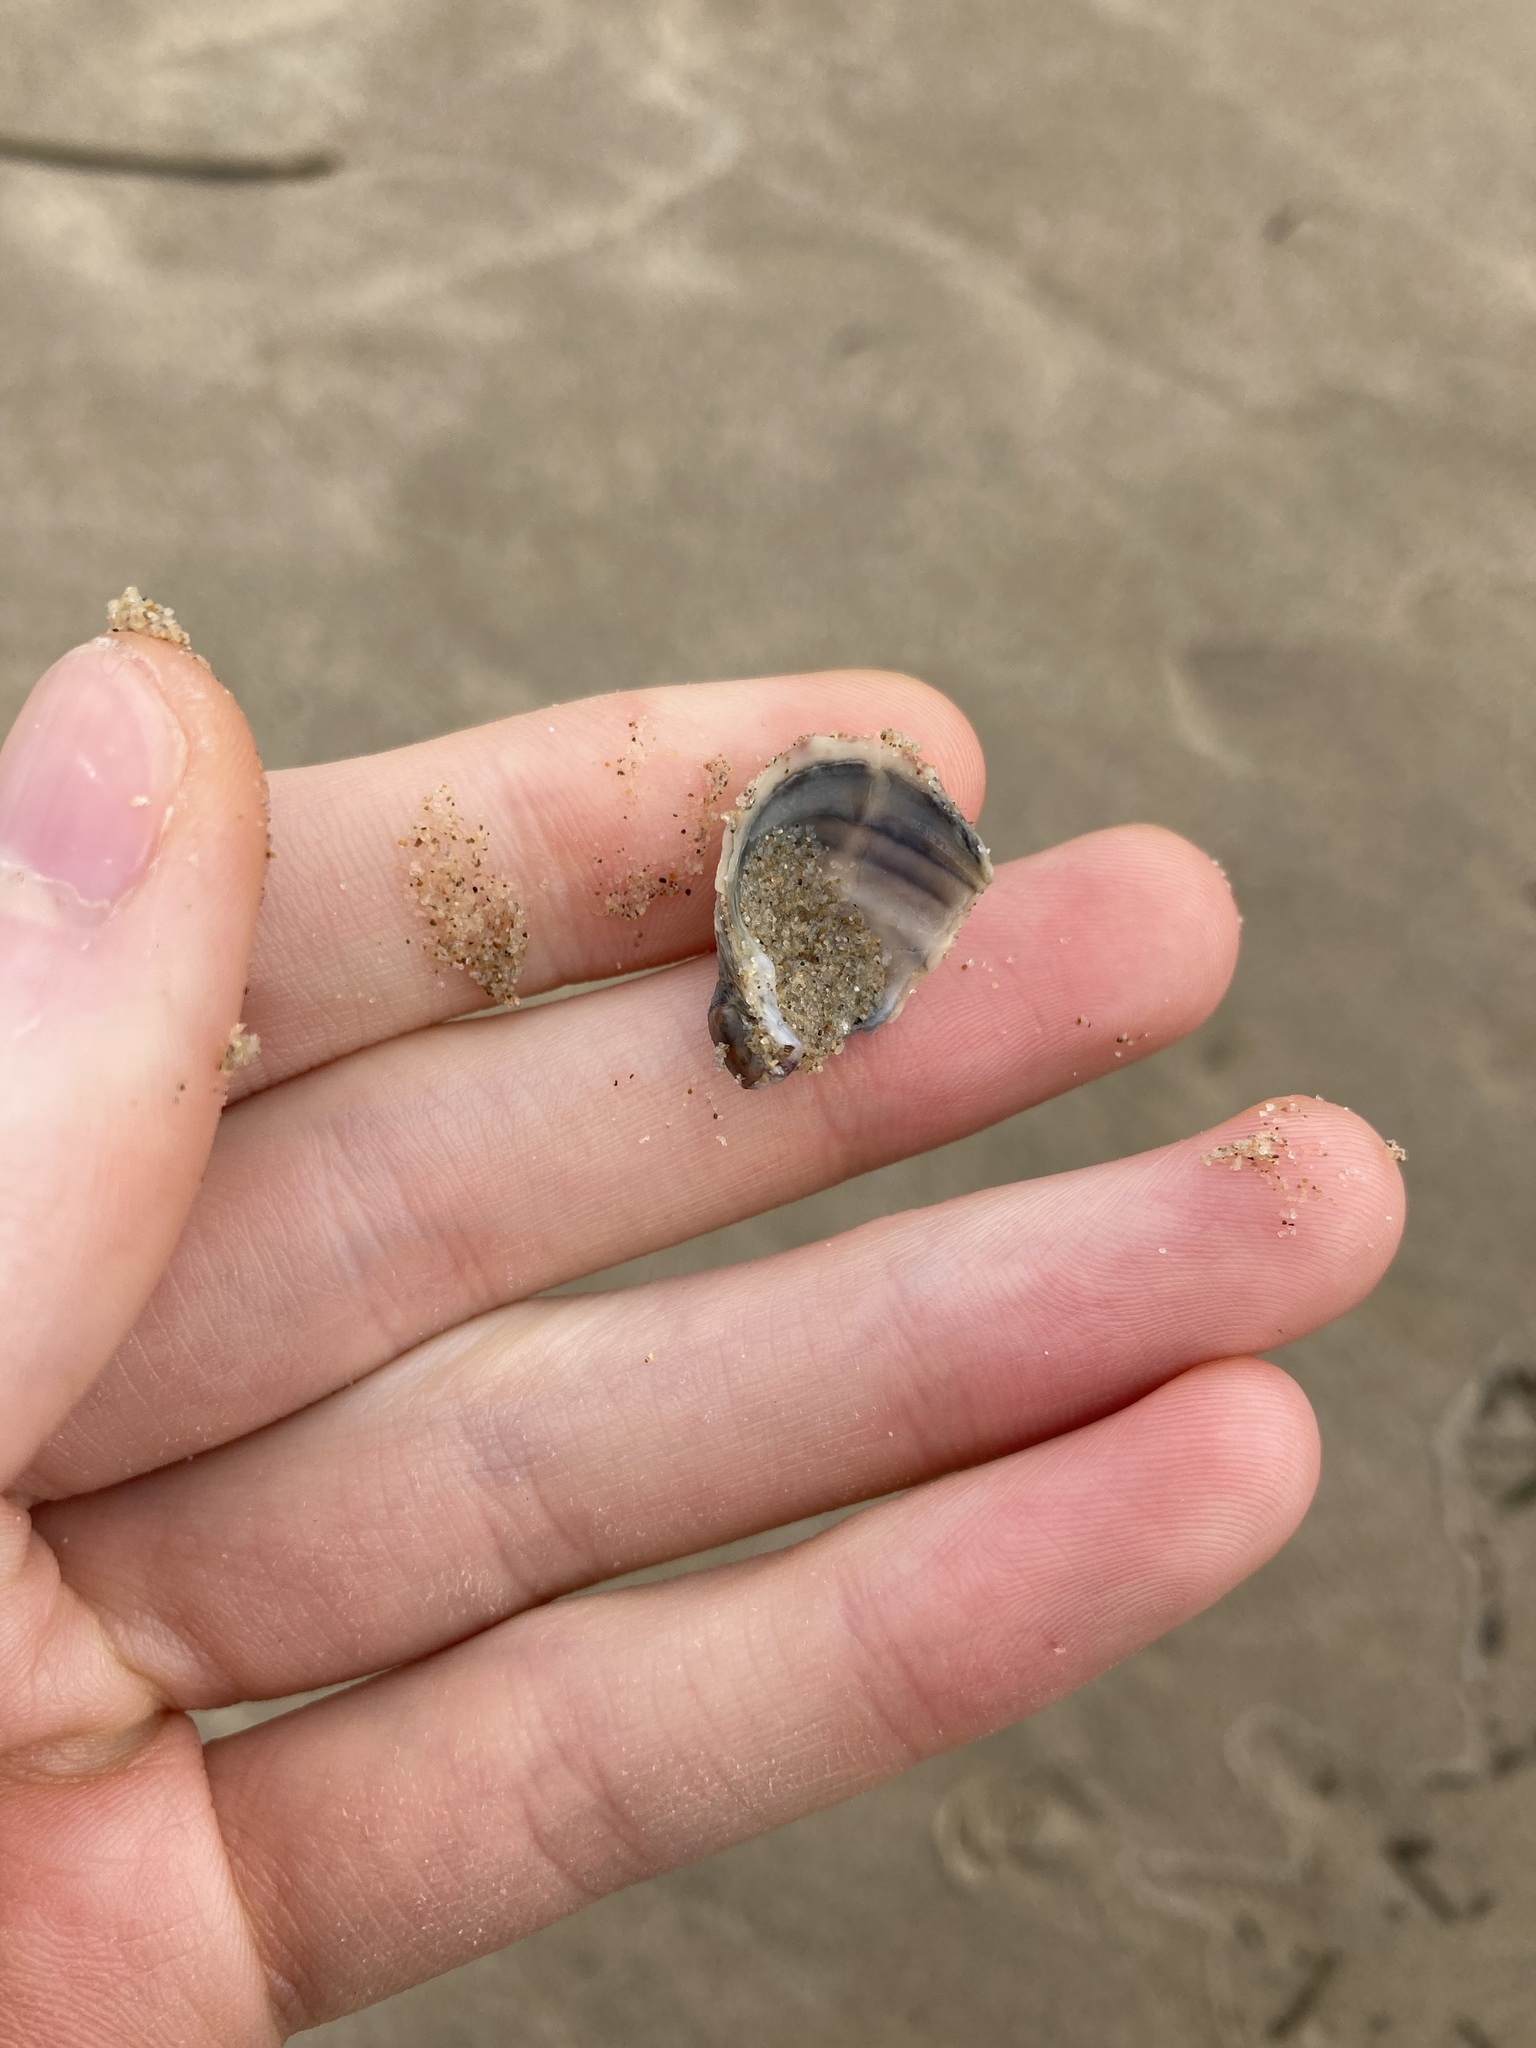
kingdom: Animalia
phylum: Mollusca
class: Bivalvia
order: Venerida
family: Veneridae
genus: Irus
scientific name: Irus crenatus
